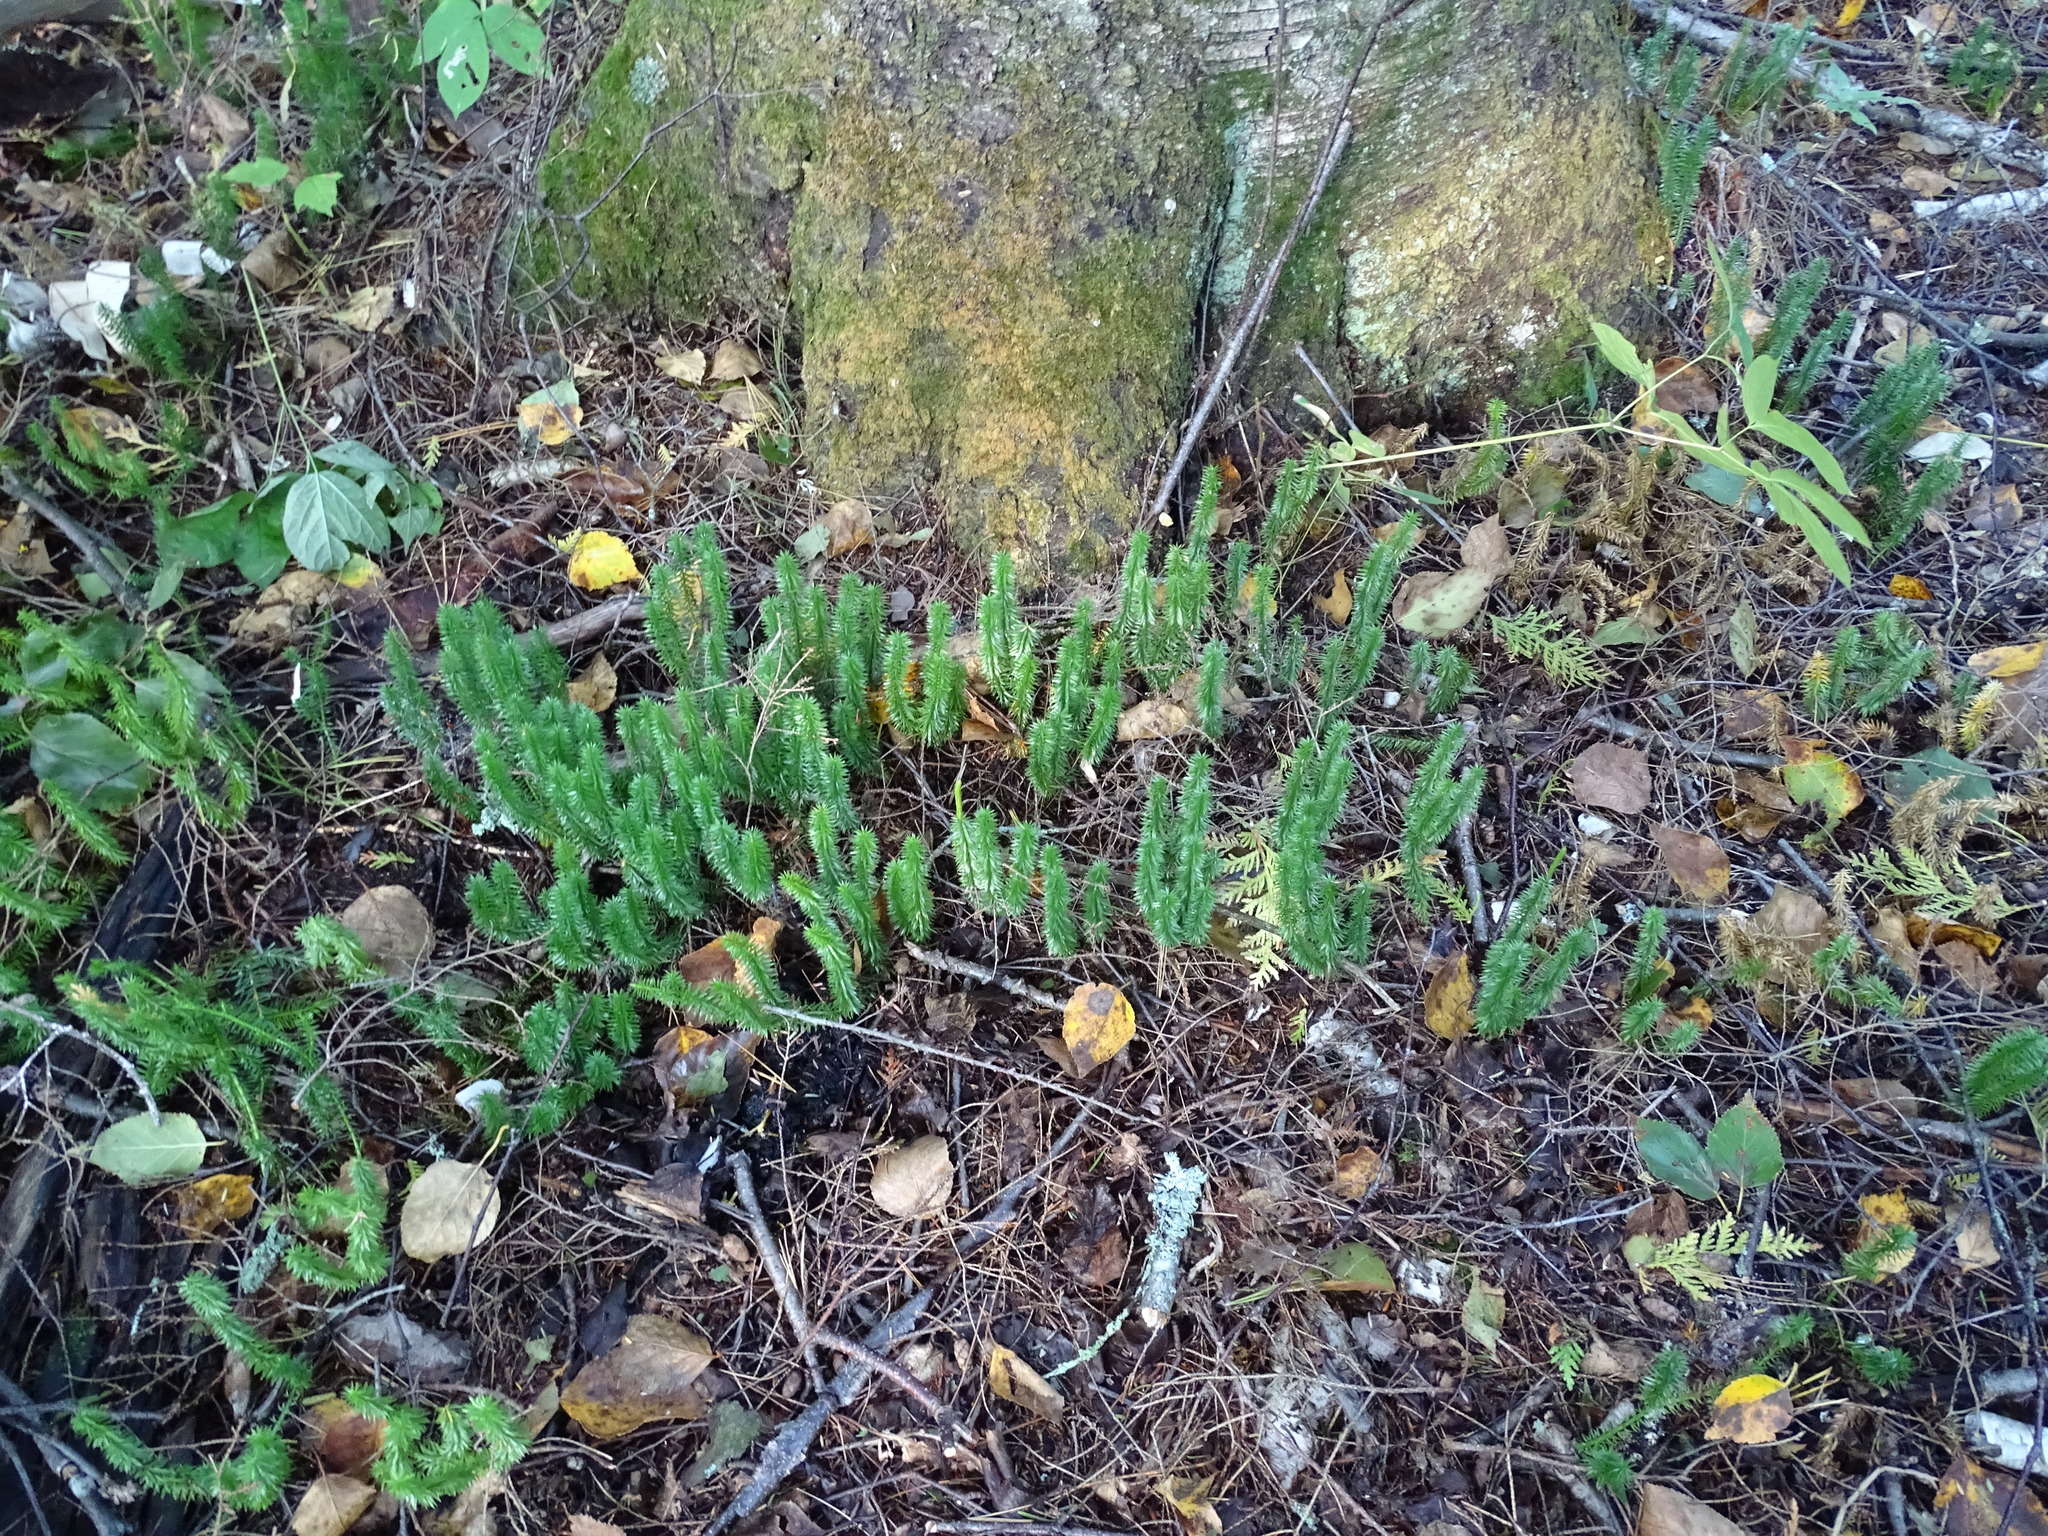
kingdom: Plantae
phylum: Tracheophyta
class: Lycopodiopsida
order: Lycopodiales
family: Lycopodiaceae
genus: Spinulum
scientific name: Spinulum annotinum
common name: Interrupted club-moss
